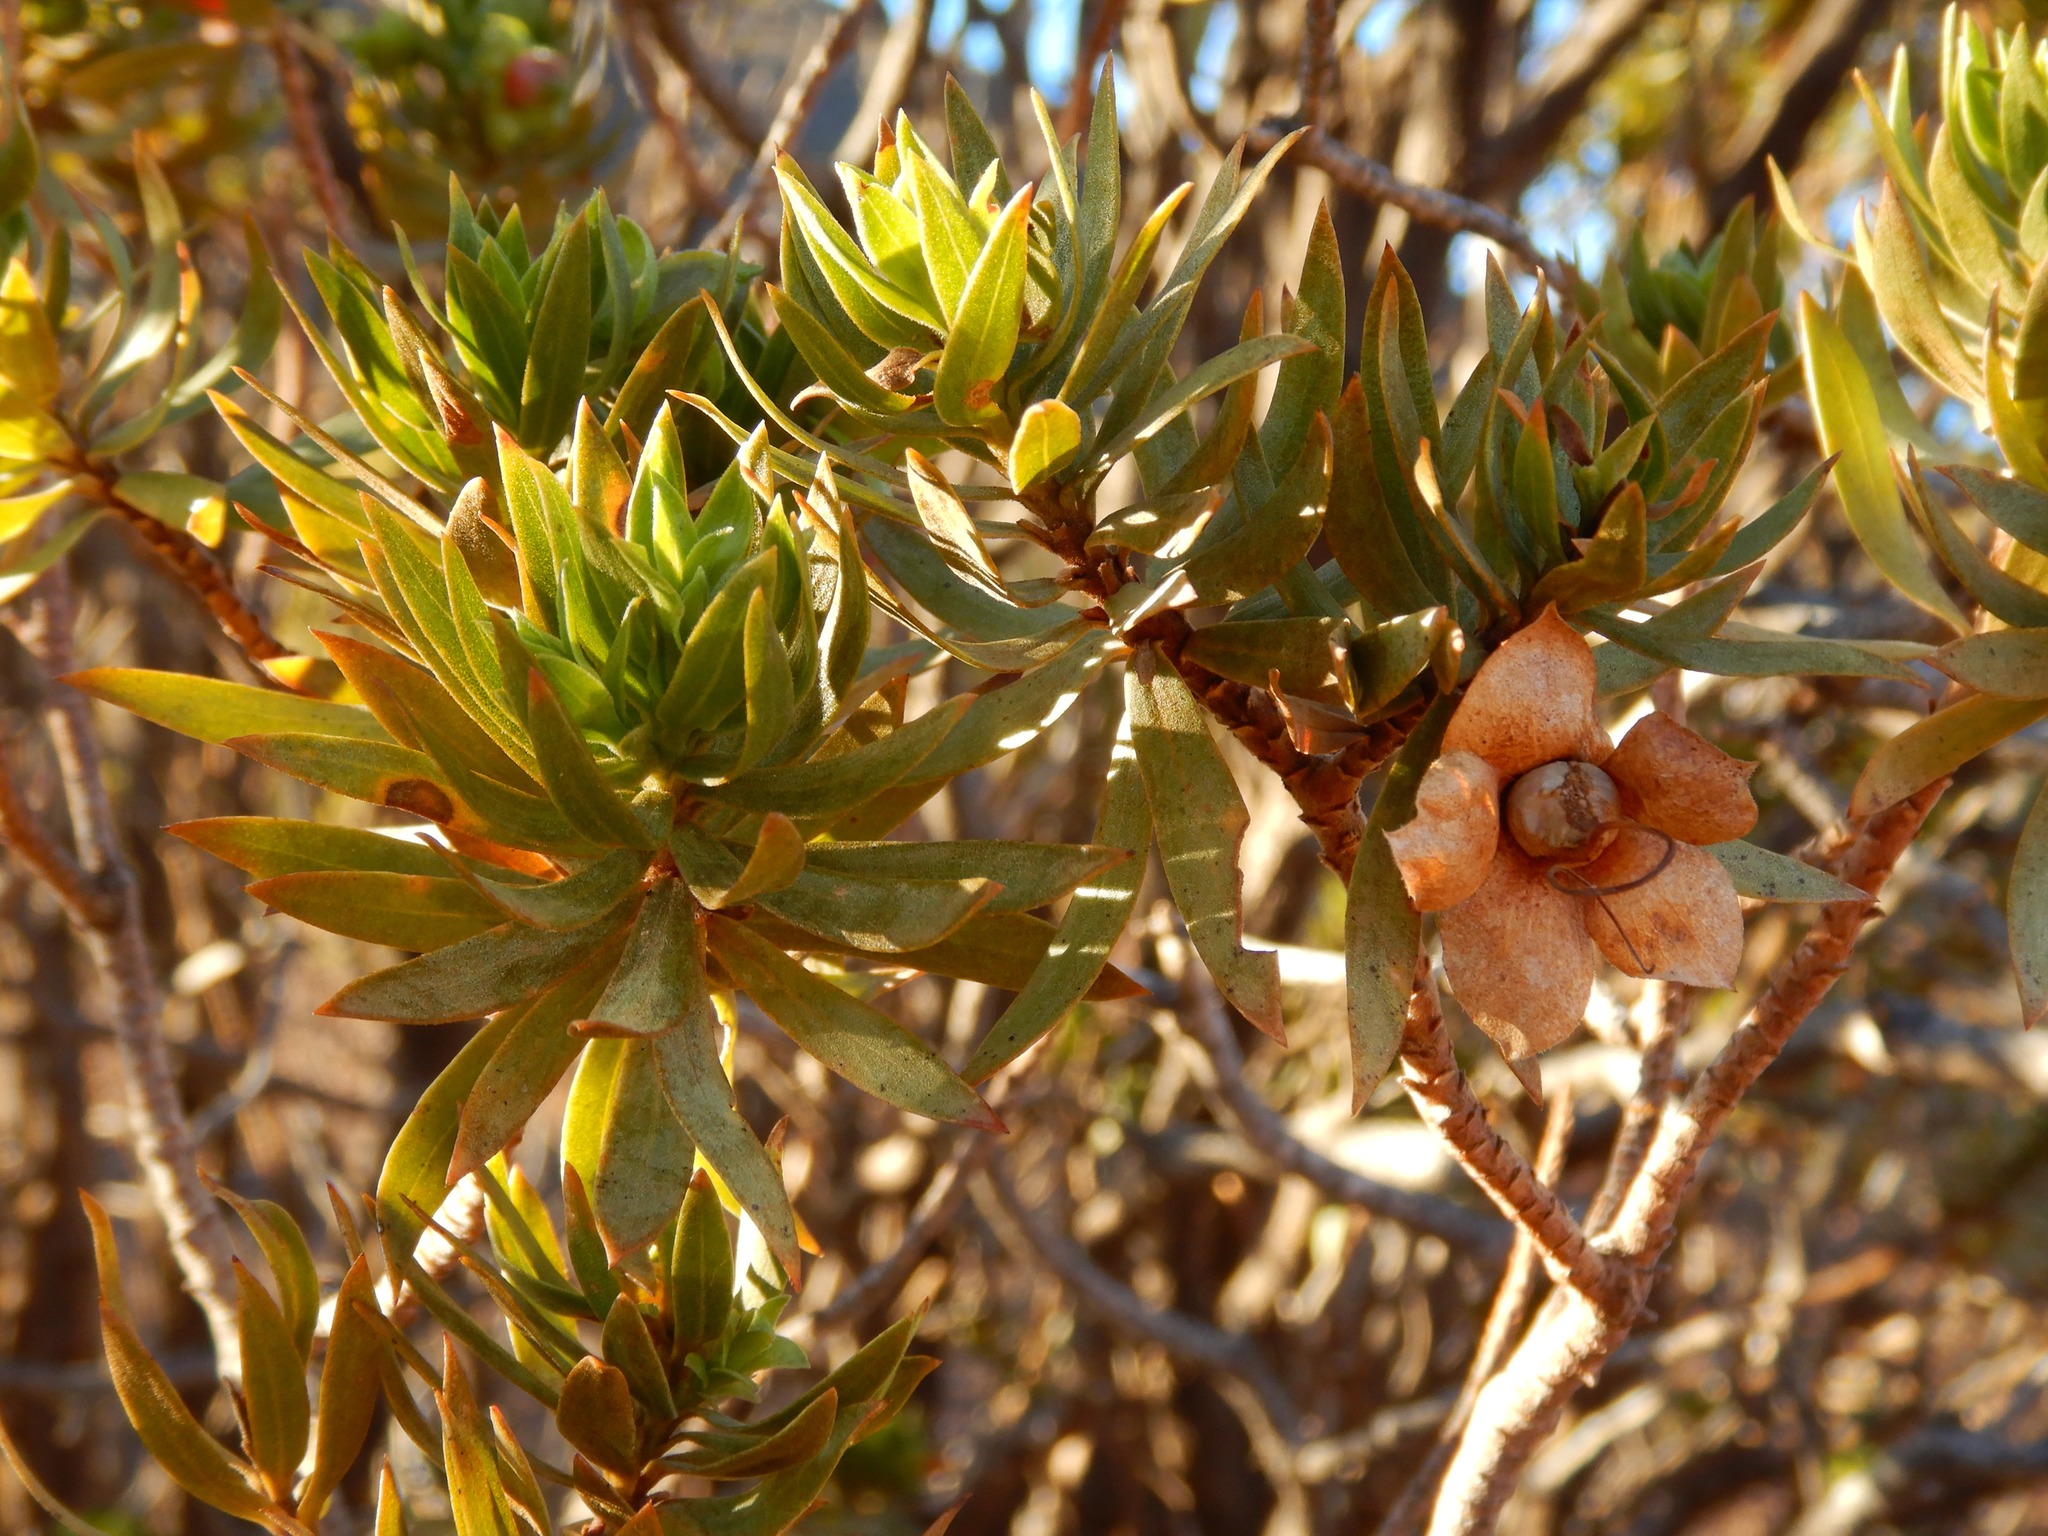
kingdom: Plantae
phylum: Tracheophyta
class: Magnoliopsida
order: Lamiales
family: Scrophulariaceae
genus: Eremophila
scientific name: Eremophila duttonii
